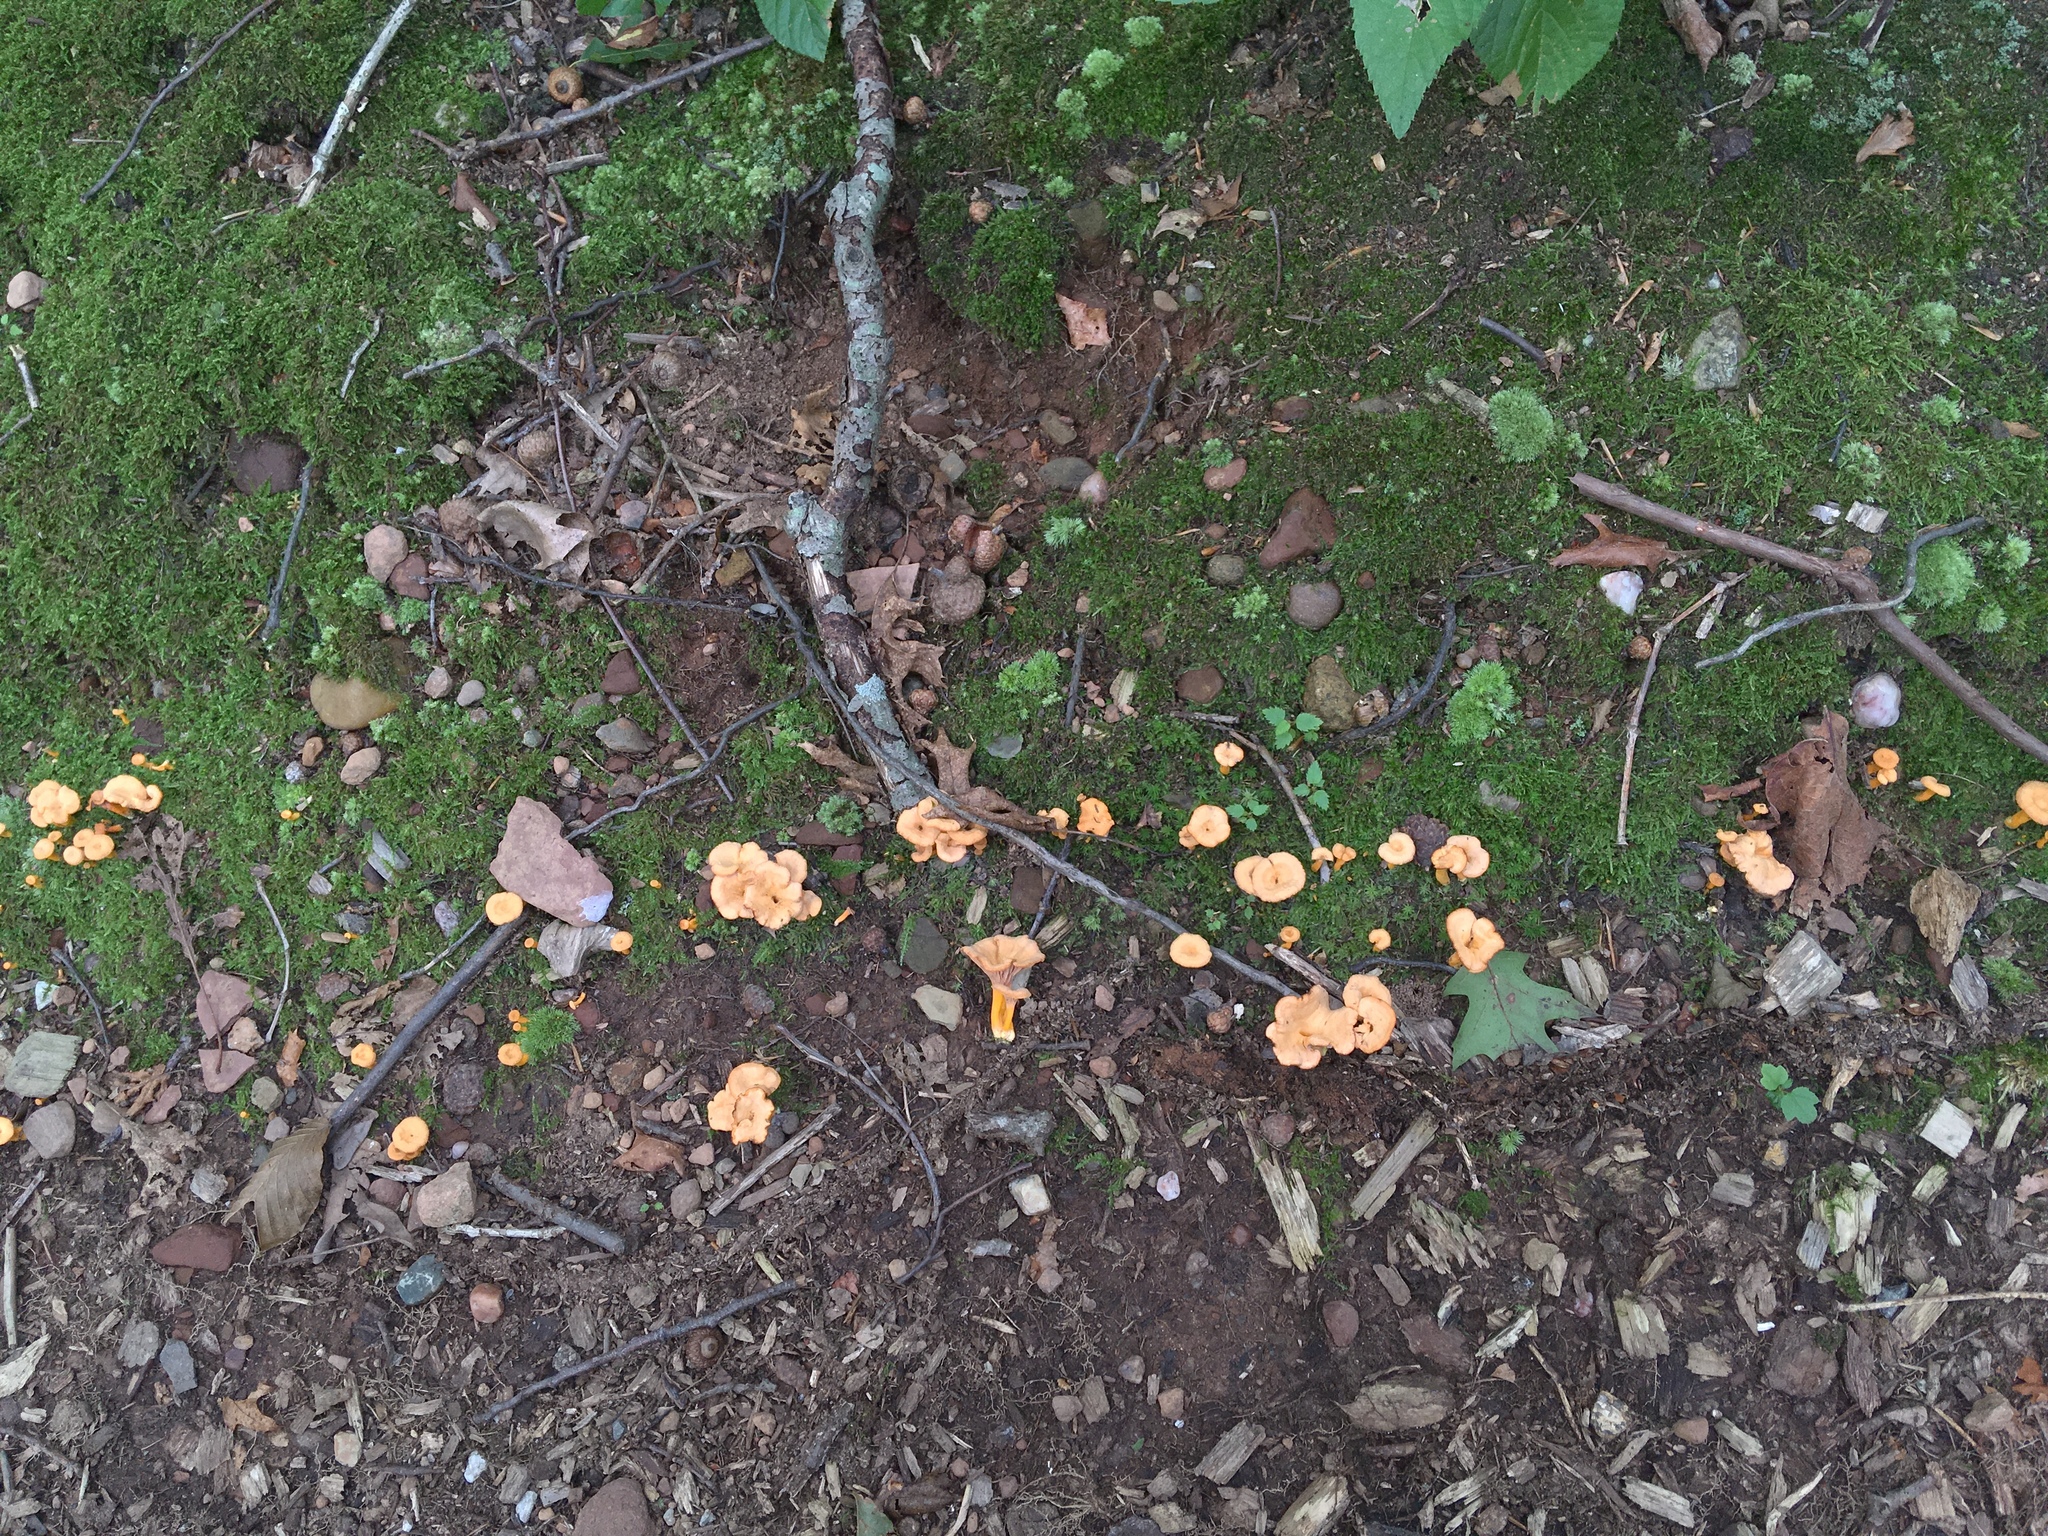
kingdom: Fungi
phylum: Basidiomycota
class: Agaricomycetes
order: Cantharellales
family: Hydnaceae
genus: Craterellus
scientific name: Craterellus ignicolor
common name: Flame chanterelle
